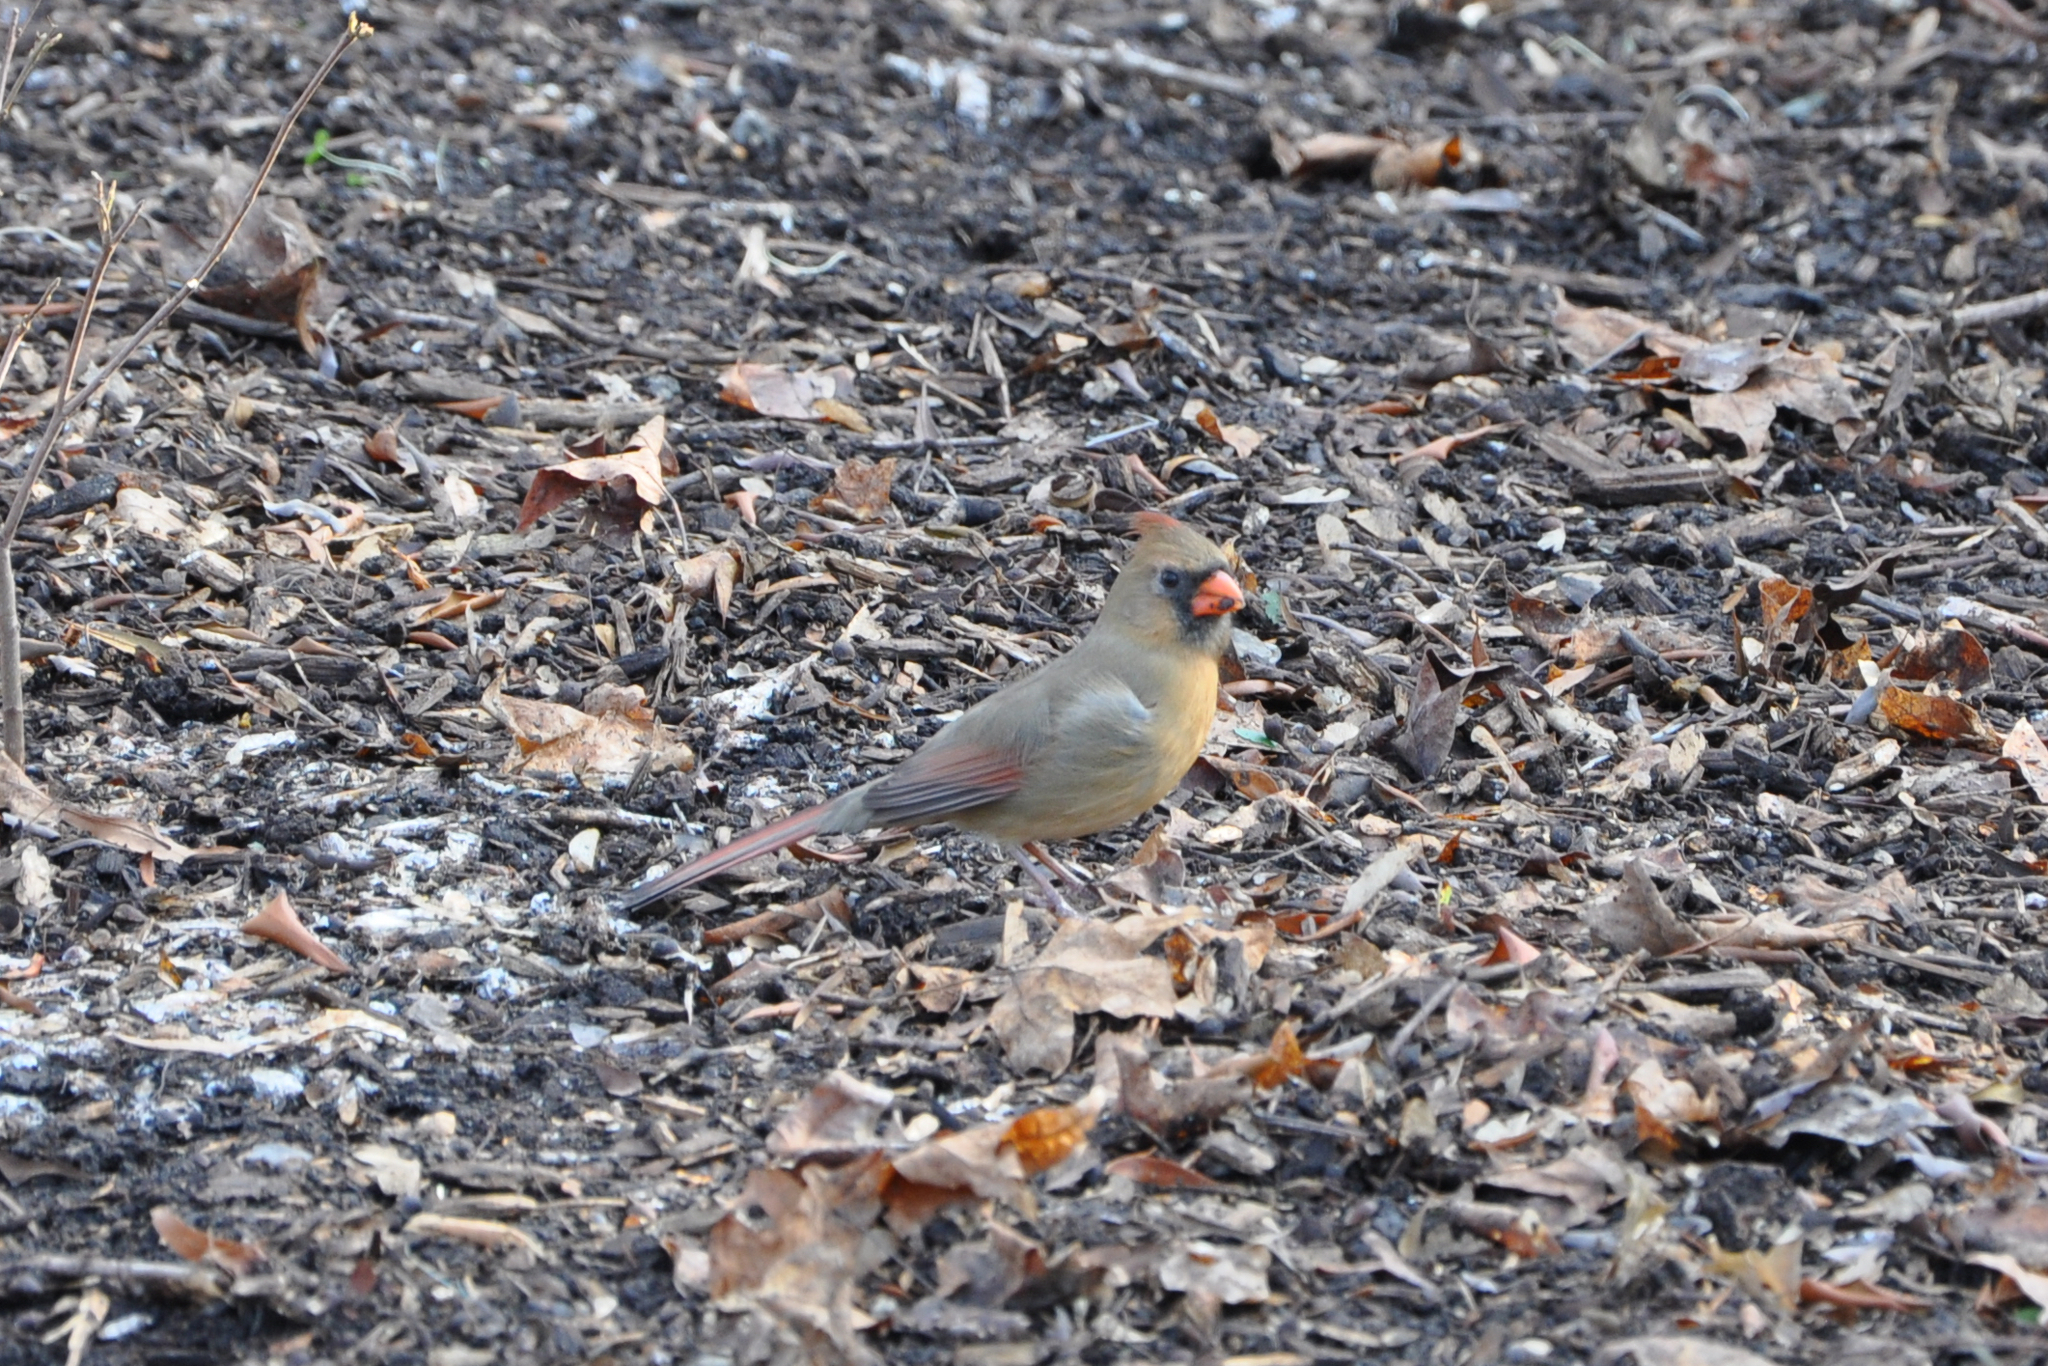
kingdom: Animalia
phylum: Chordata
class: Aves
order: Passeriformes
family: Cardinalidae
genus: Cardinalis
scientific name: Cardinalis cardinalis
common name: Northern cardinal
